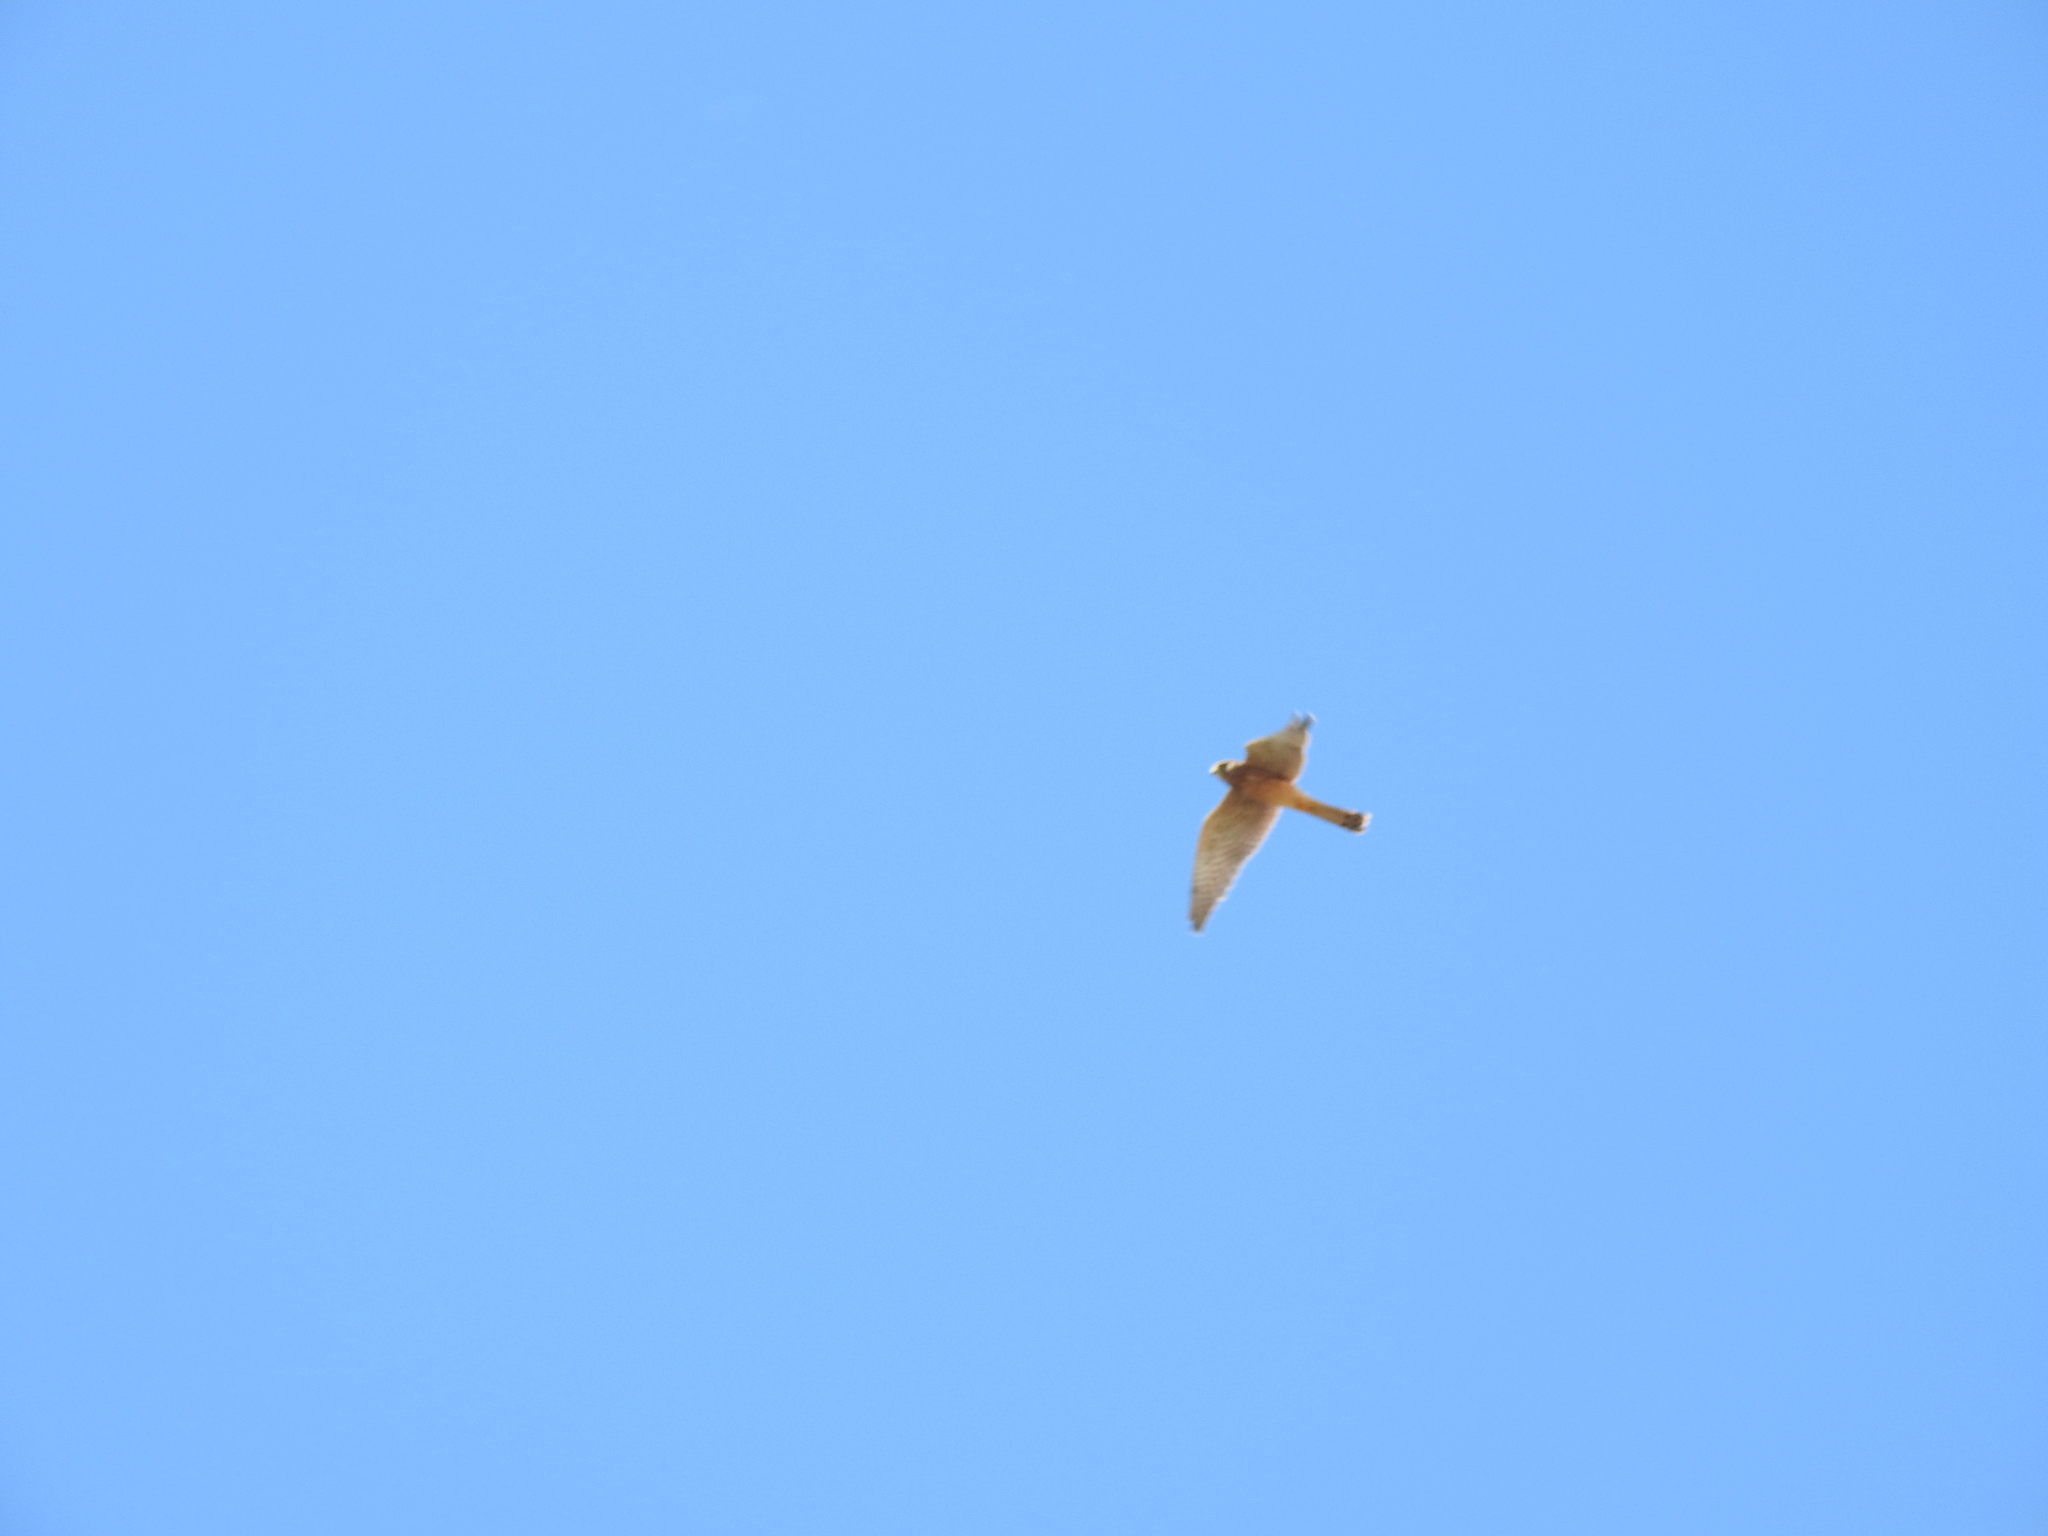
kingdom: Animalia
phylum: Chordata
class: Aves
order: Falconiformes
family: Falconidae
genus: Falco
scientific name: Falco tinnunculus
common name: Common kestrel
